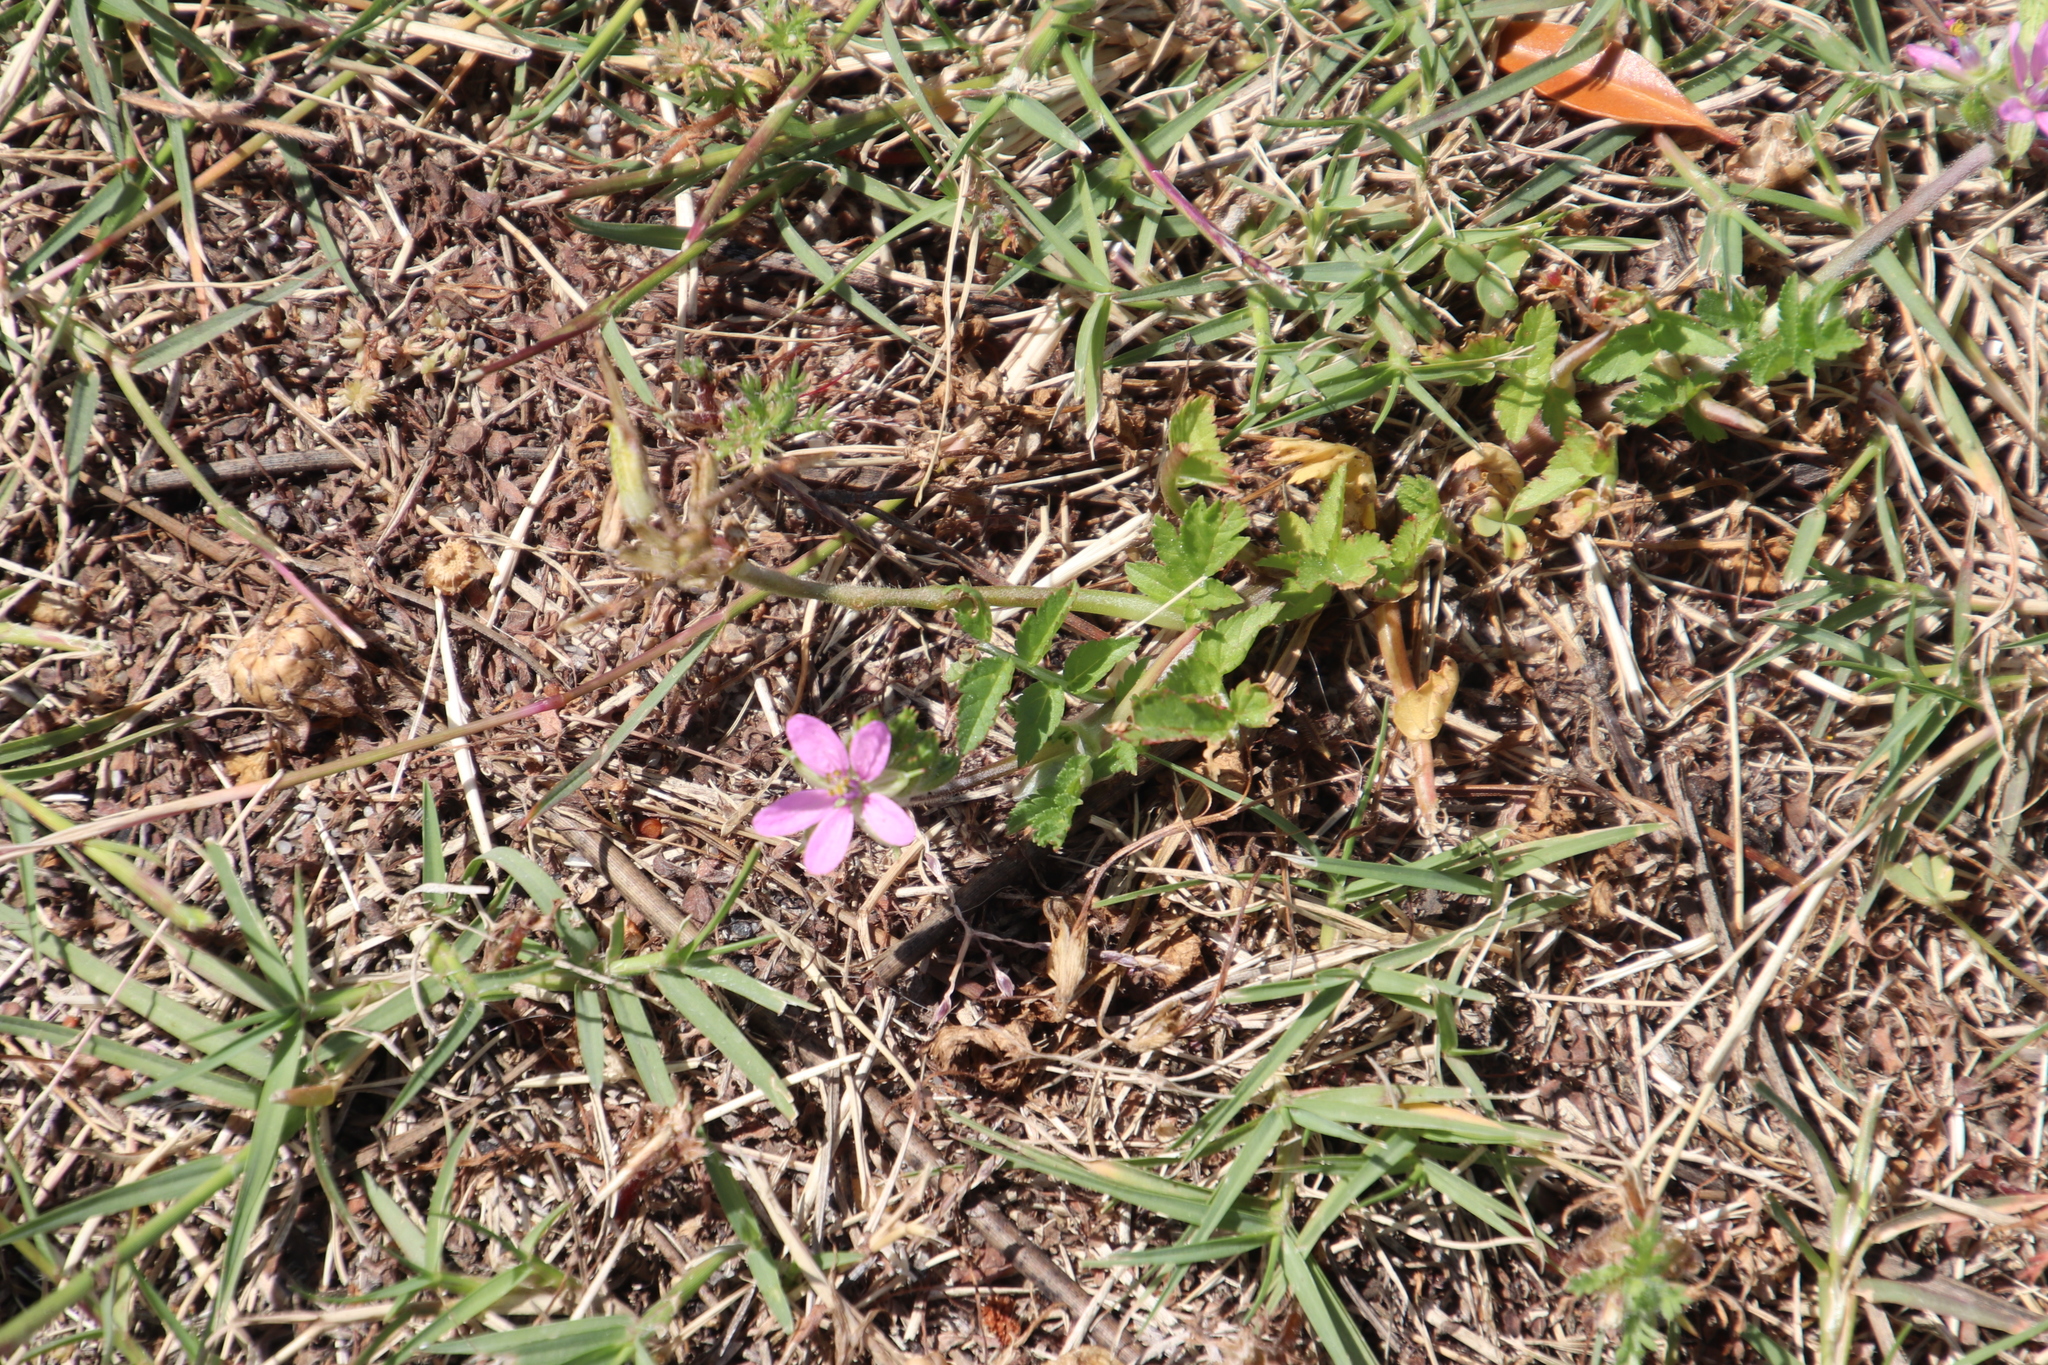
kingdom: Plantae
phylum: Tracheophyta
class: Magnoliopsida
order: Geraniales
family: Geraniaceae
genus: Erodium
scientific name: Erodium moschatum
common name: Musk stork's-bill
